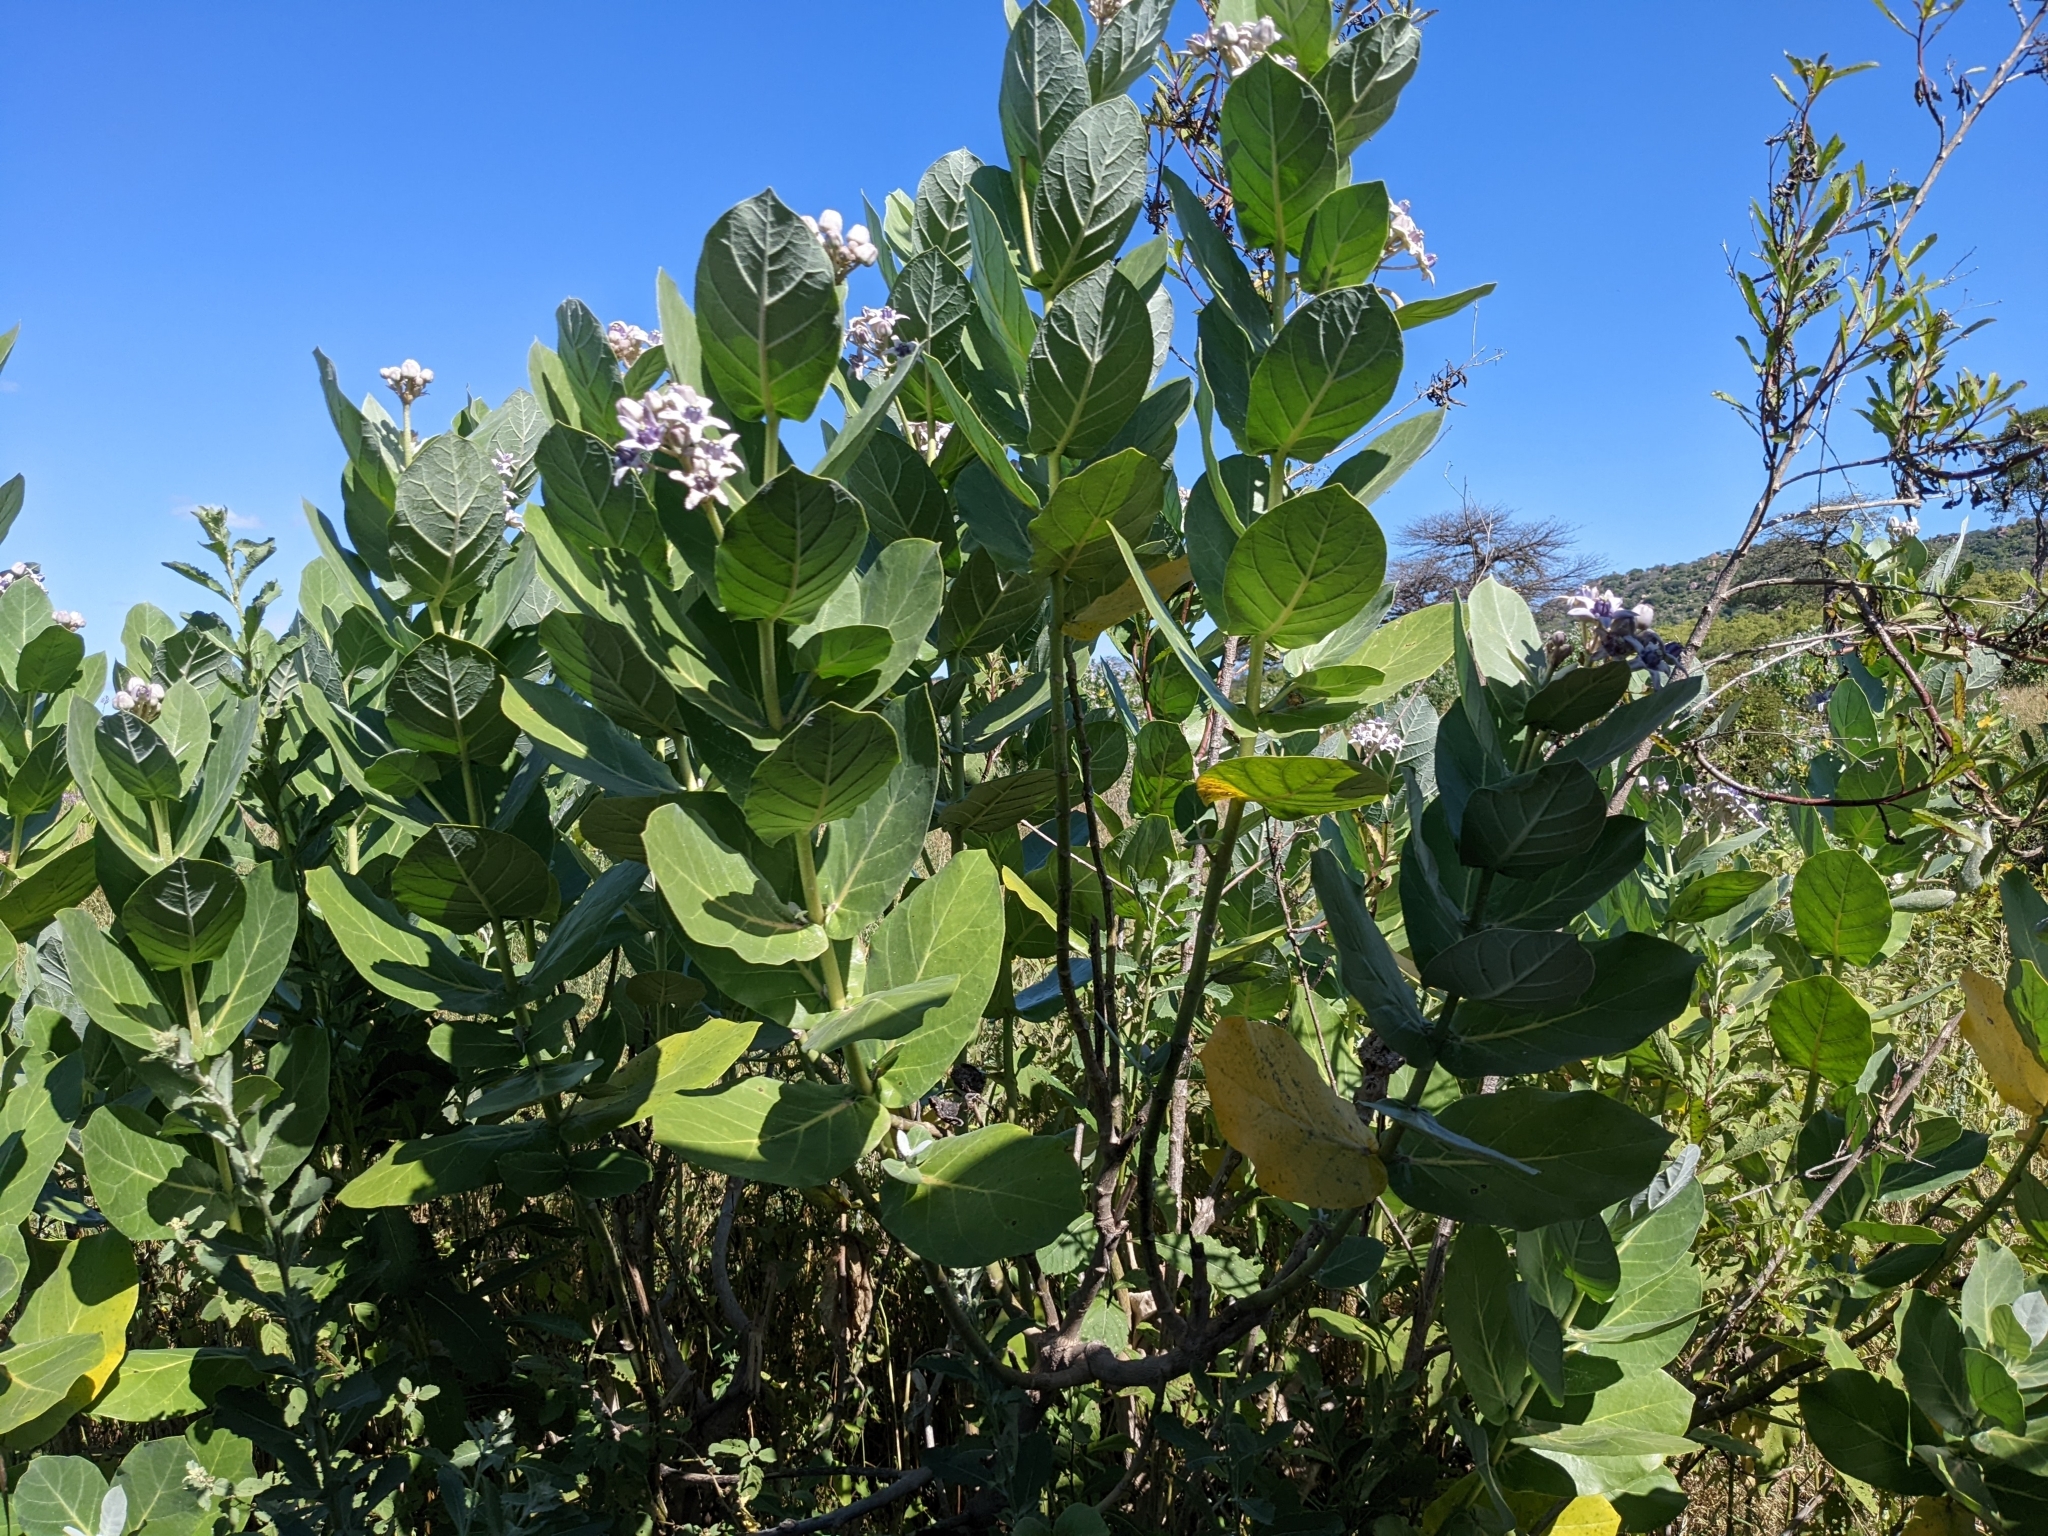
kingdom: Plantae
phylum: Tracheophyta
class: Magnoliopsida
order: Gentianales
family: Apocynaceae
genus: Calotropis
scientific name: Calotropis gigantea
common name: Crown flower
